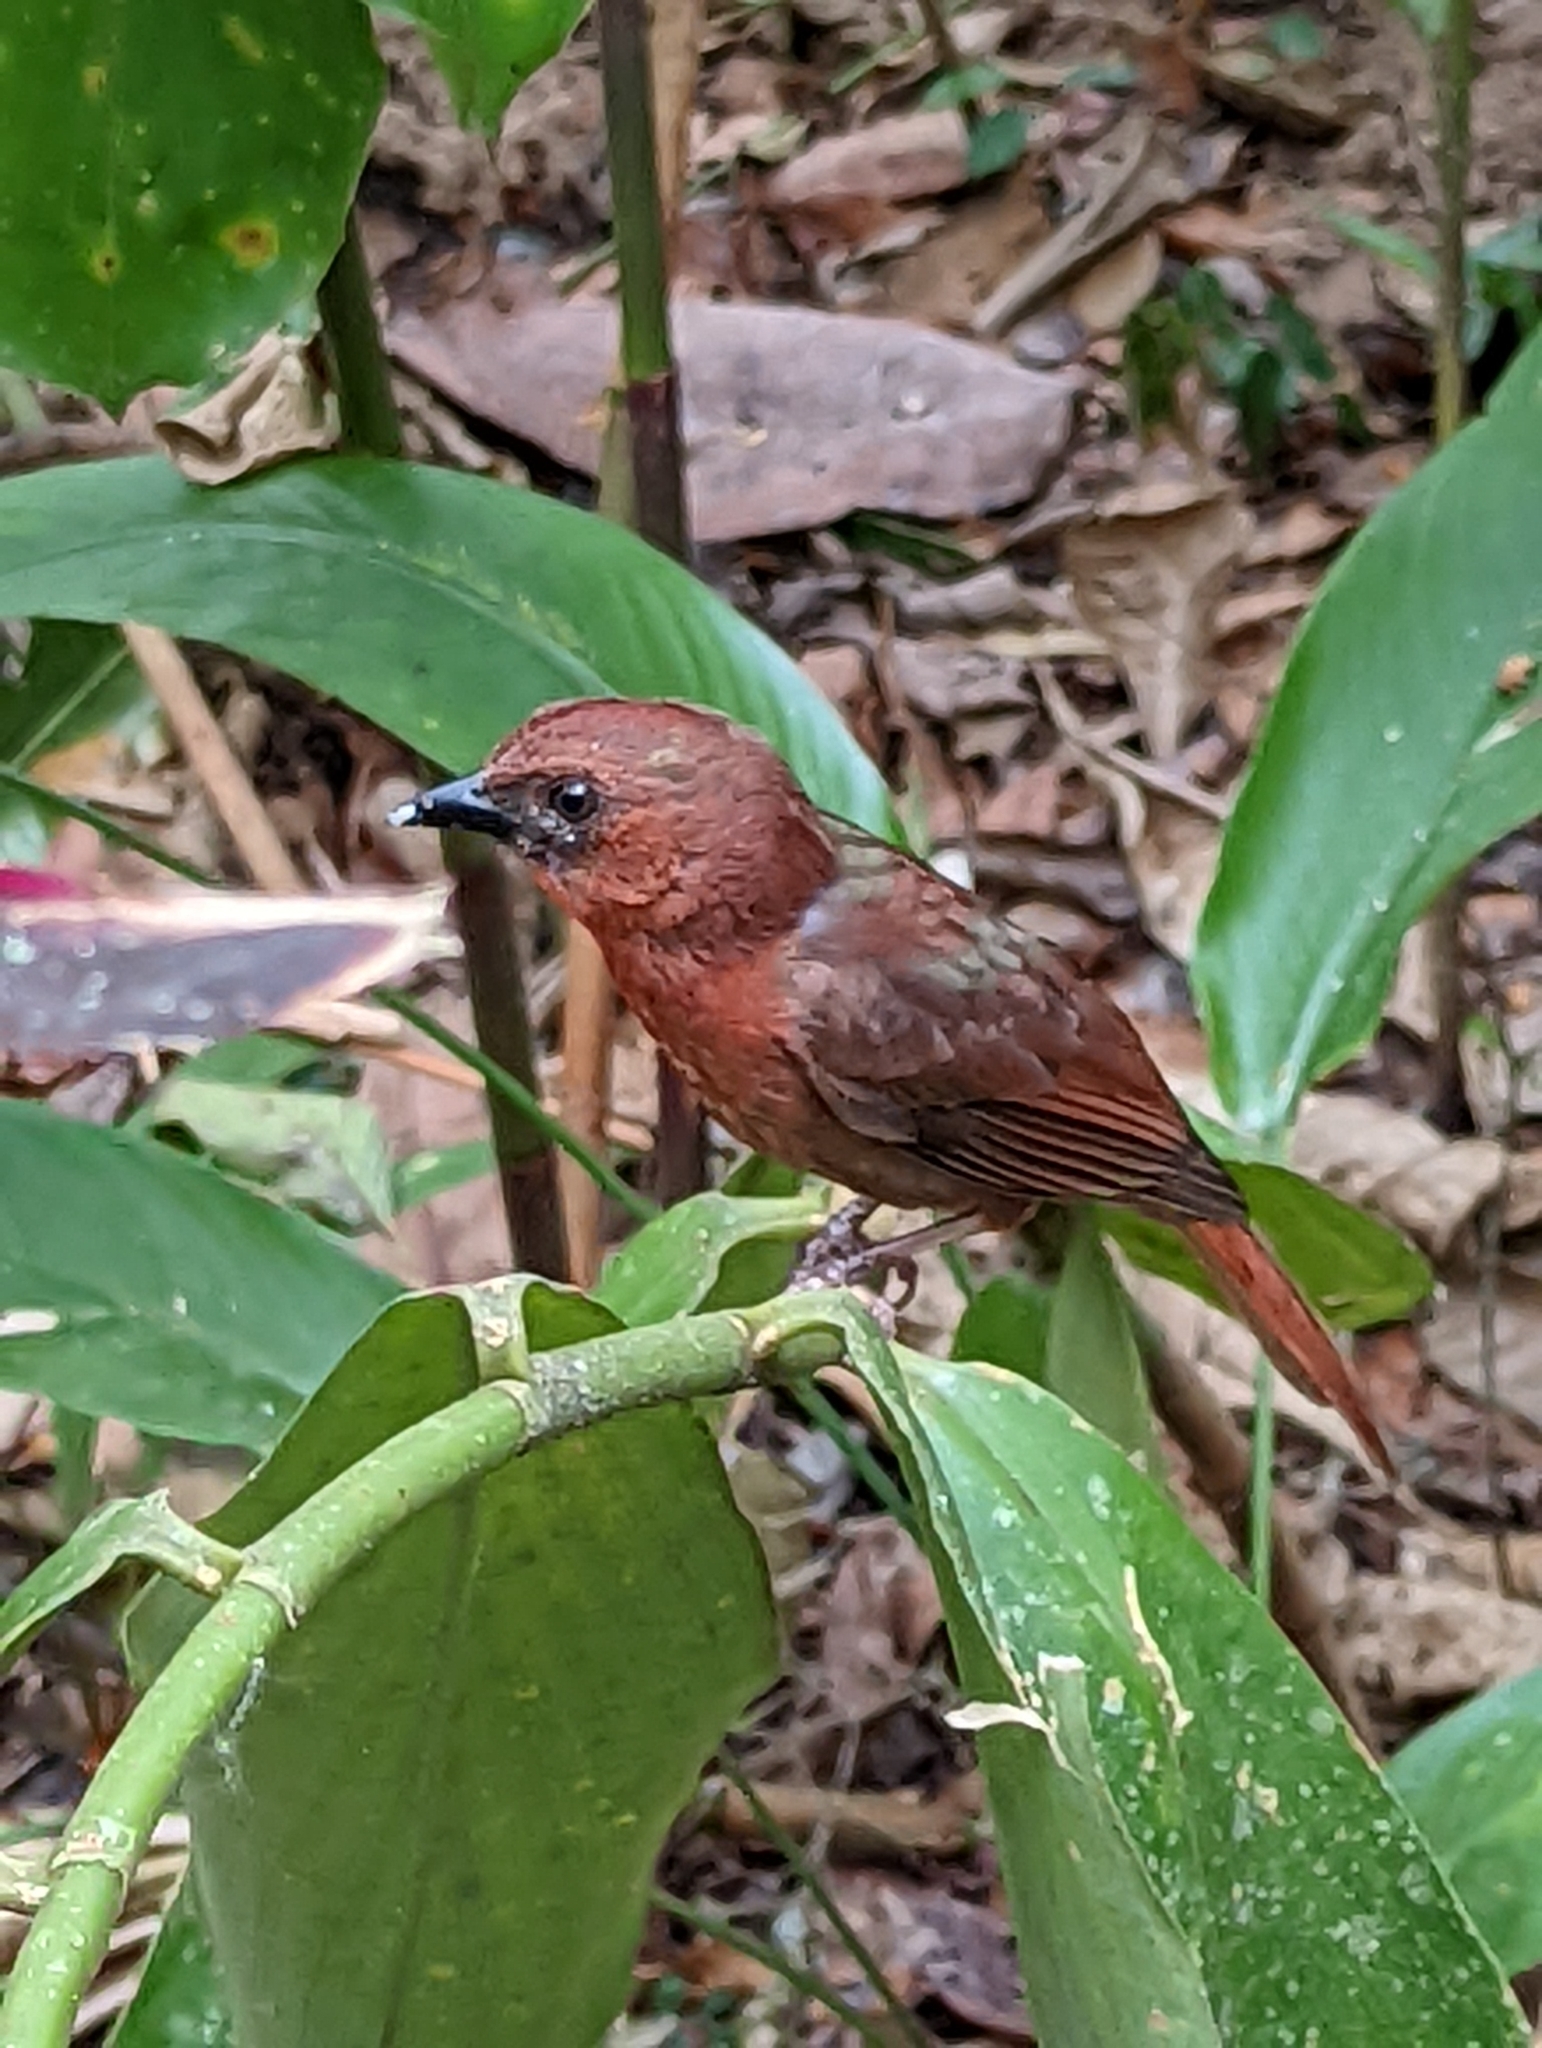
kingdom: Animalia
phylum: Chordata
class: Aves
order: Passeriformes
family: Cardinalidae
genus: Habia
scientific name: Habia fuscicauda
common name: Red-throated ant-tanager
